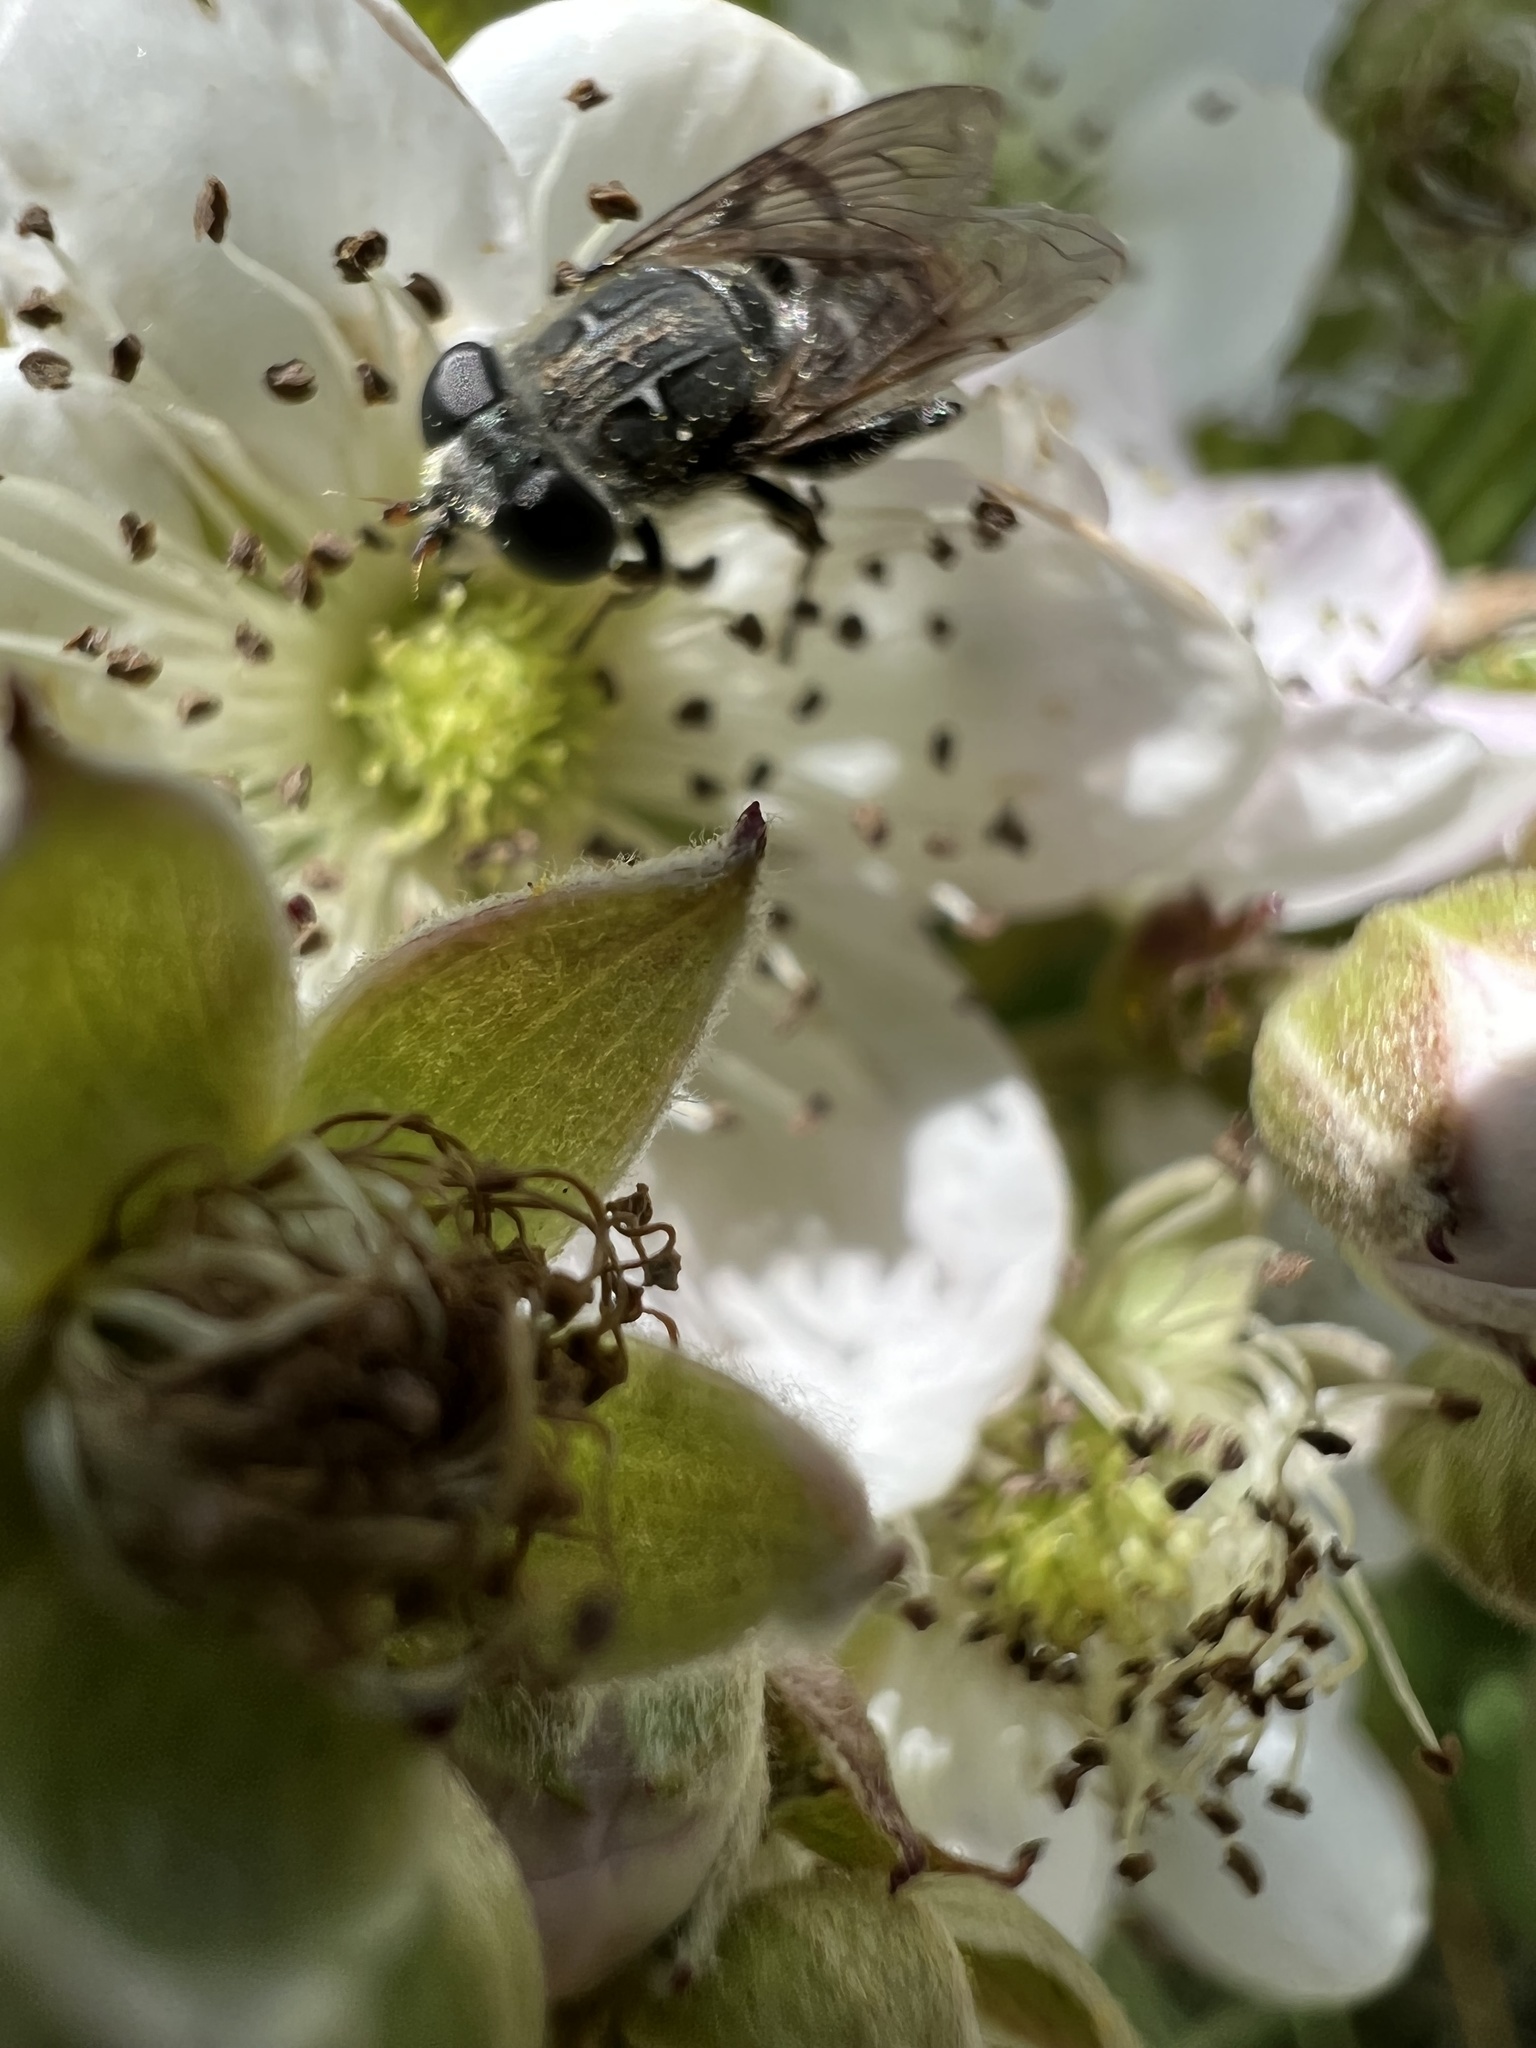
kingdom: Animalia
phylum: Arthropoda
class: Insecta
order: Diptera
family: Syrphidae
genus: Asemosyrphus
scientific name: Asemosyrphus
